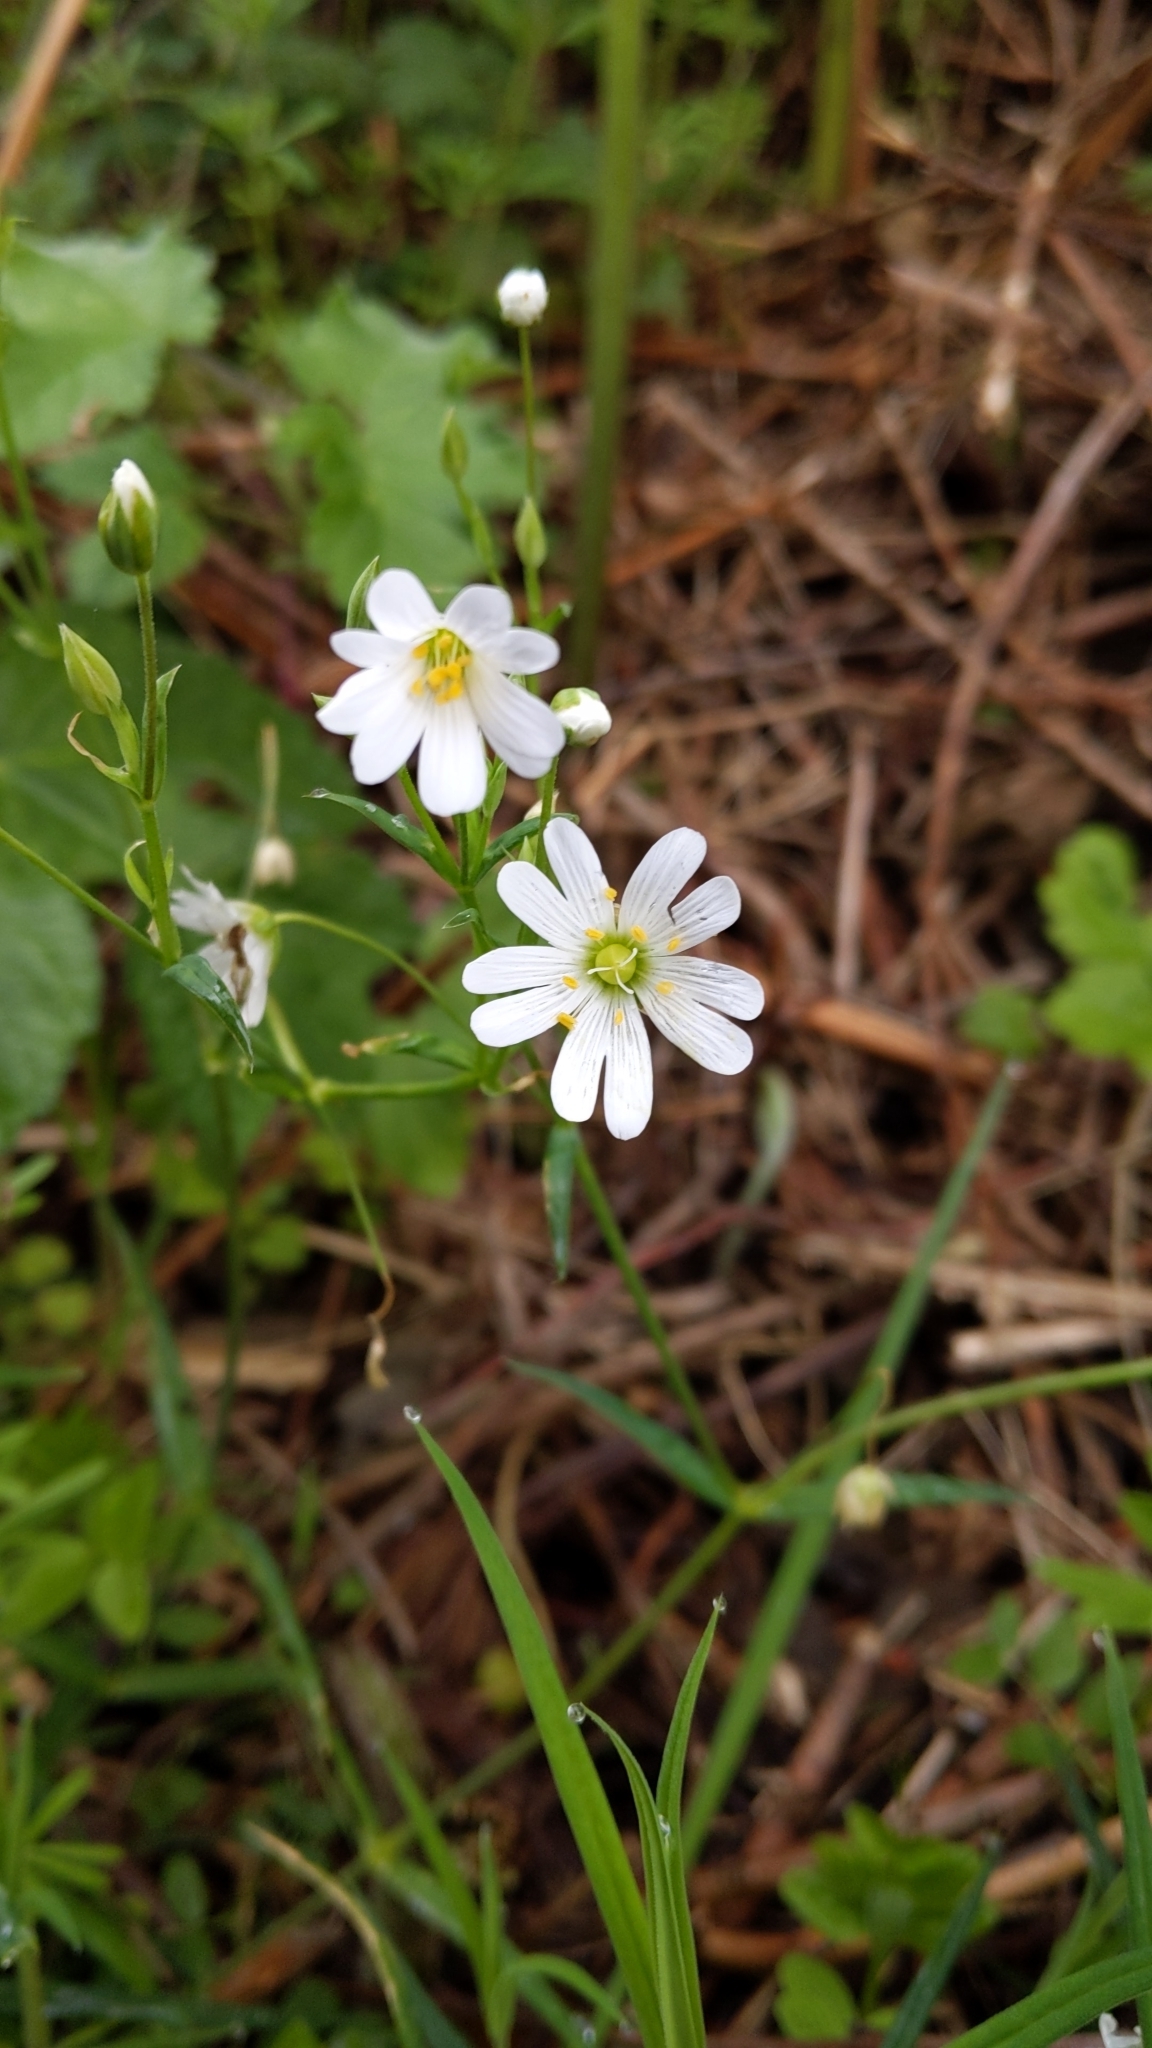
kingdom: Plantae
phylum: Tracheophyta
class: Magnoliopsida
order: Caryophyllales
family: Caryophyllaceae
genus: Rabelera
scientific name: Rabelera holostea
